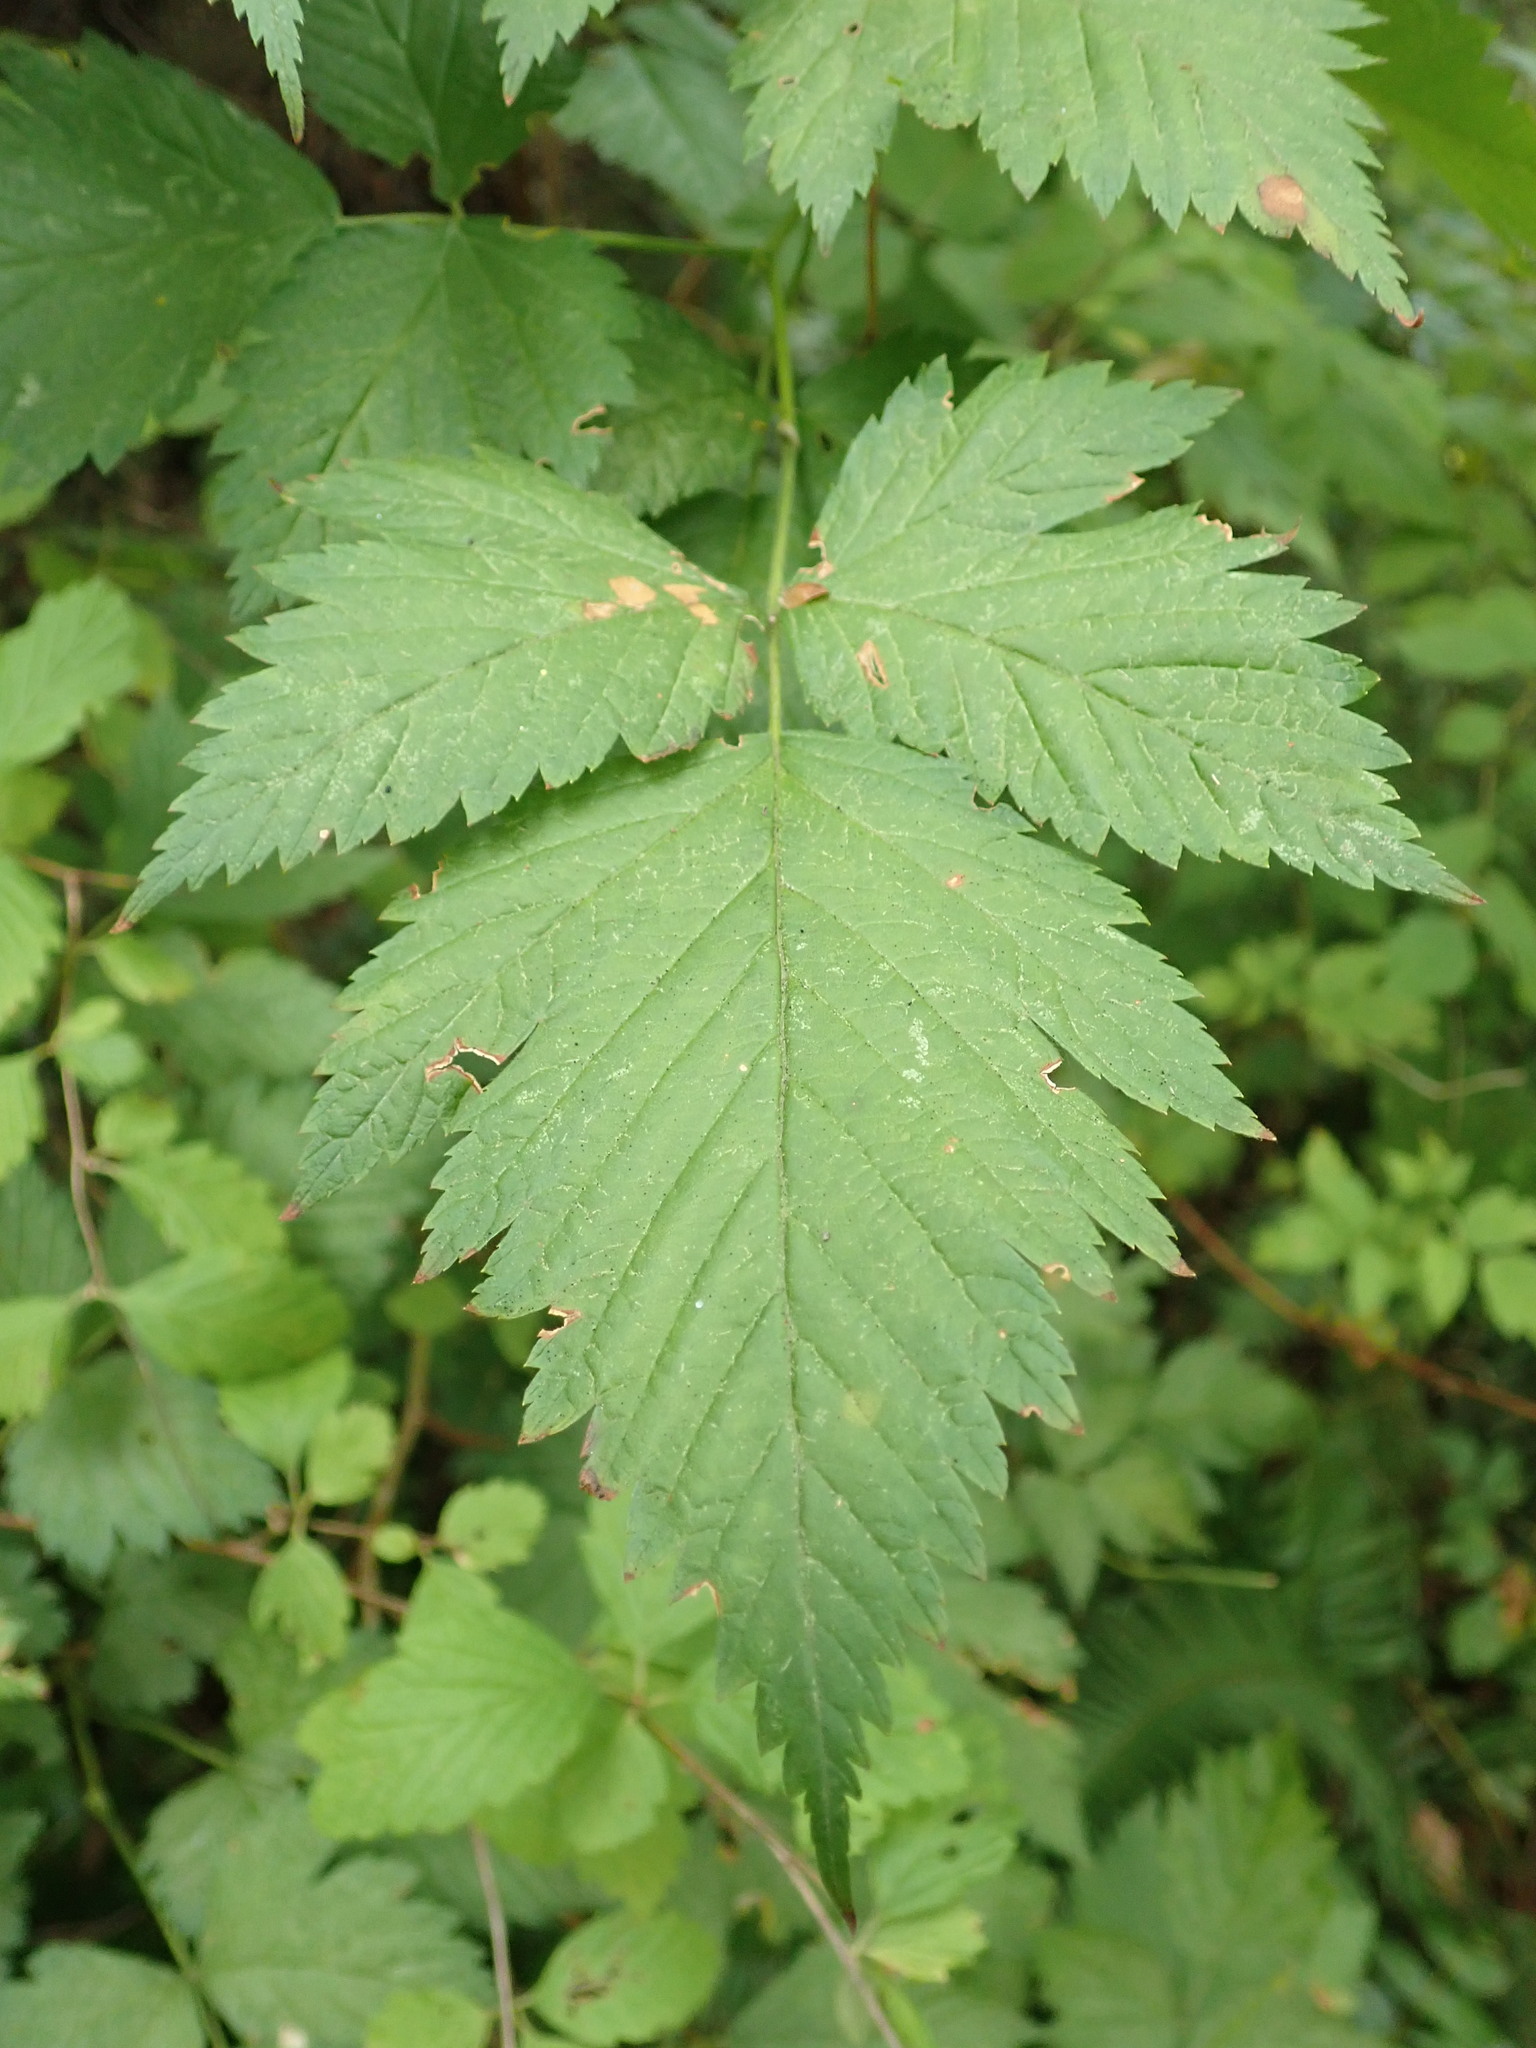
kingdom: Plantae
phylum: Tracheophyta
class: Magnoliopsida
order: Rosales
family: Rosaceae
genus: Rubus
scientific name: Rubus spectabilis
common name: Salmonberry
